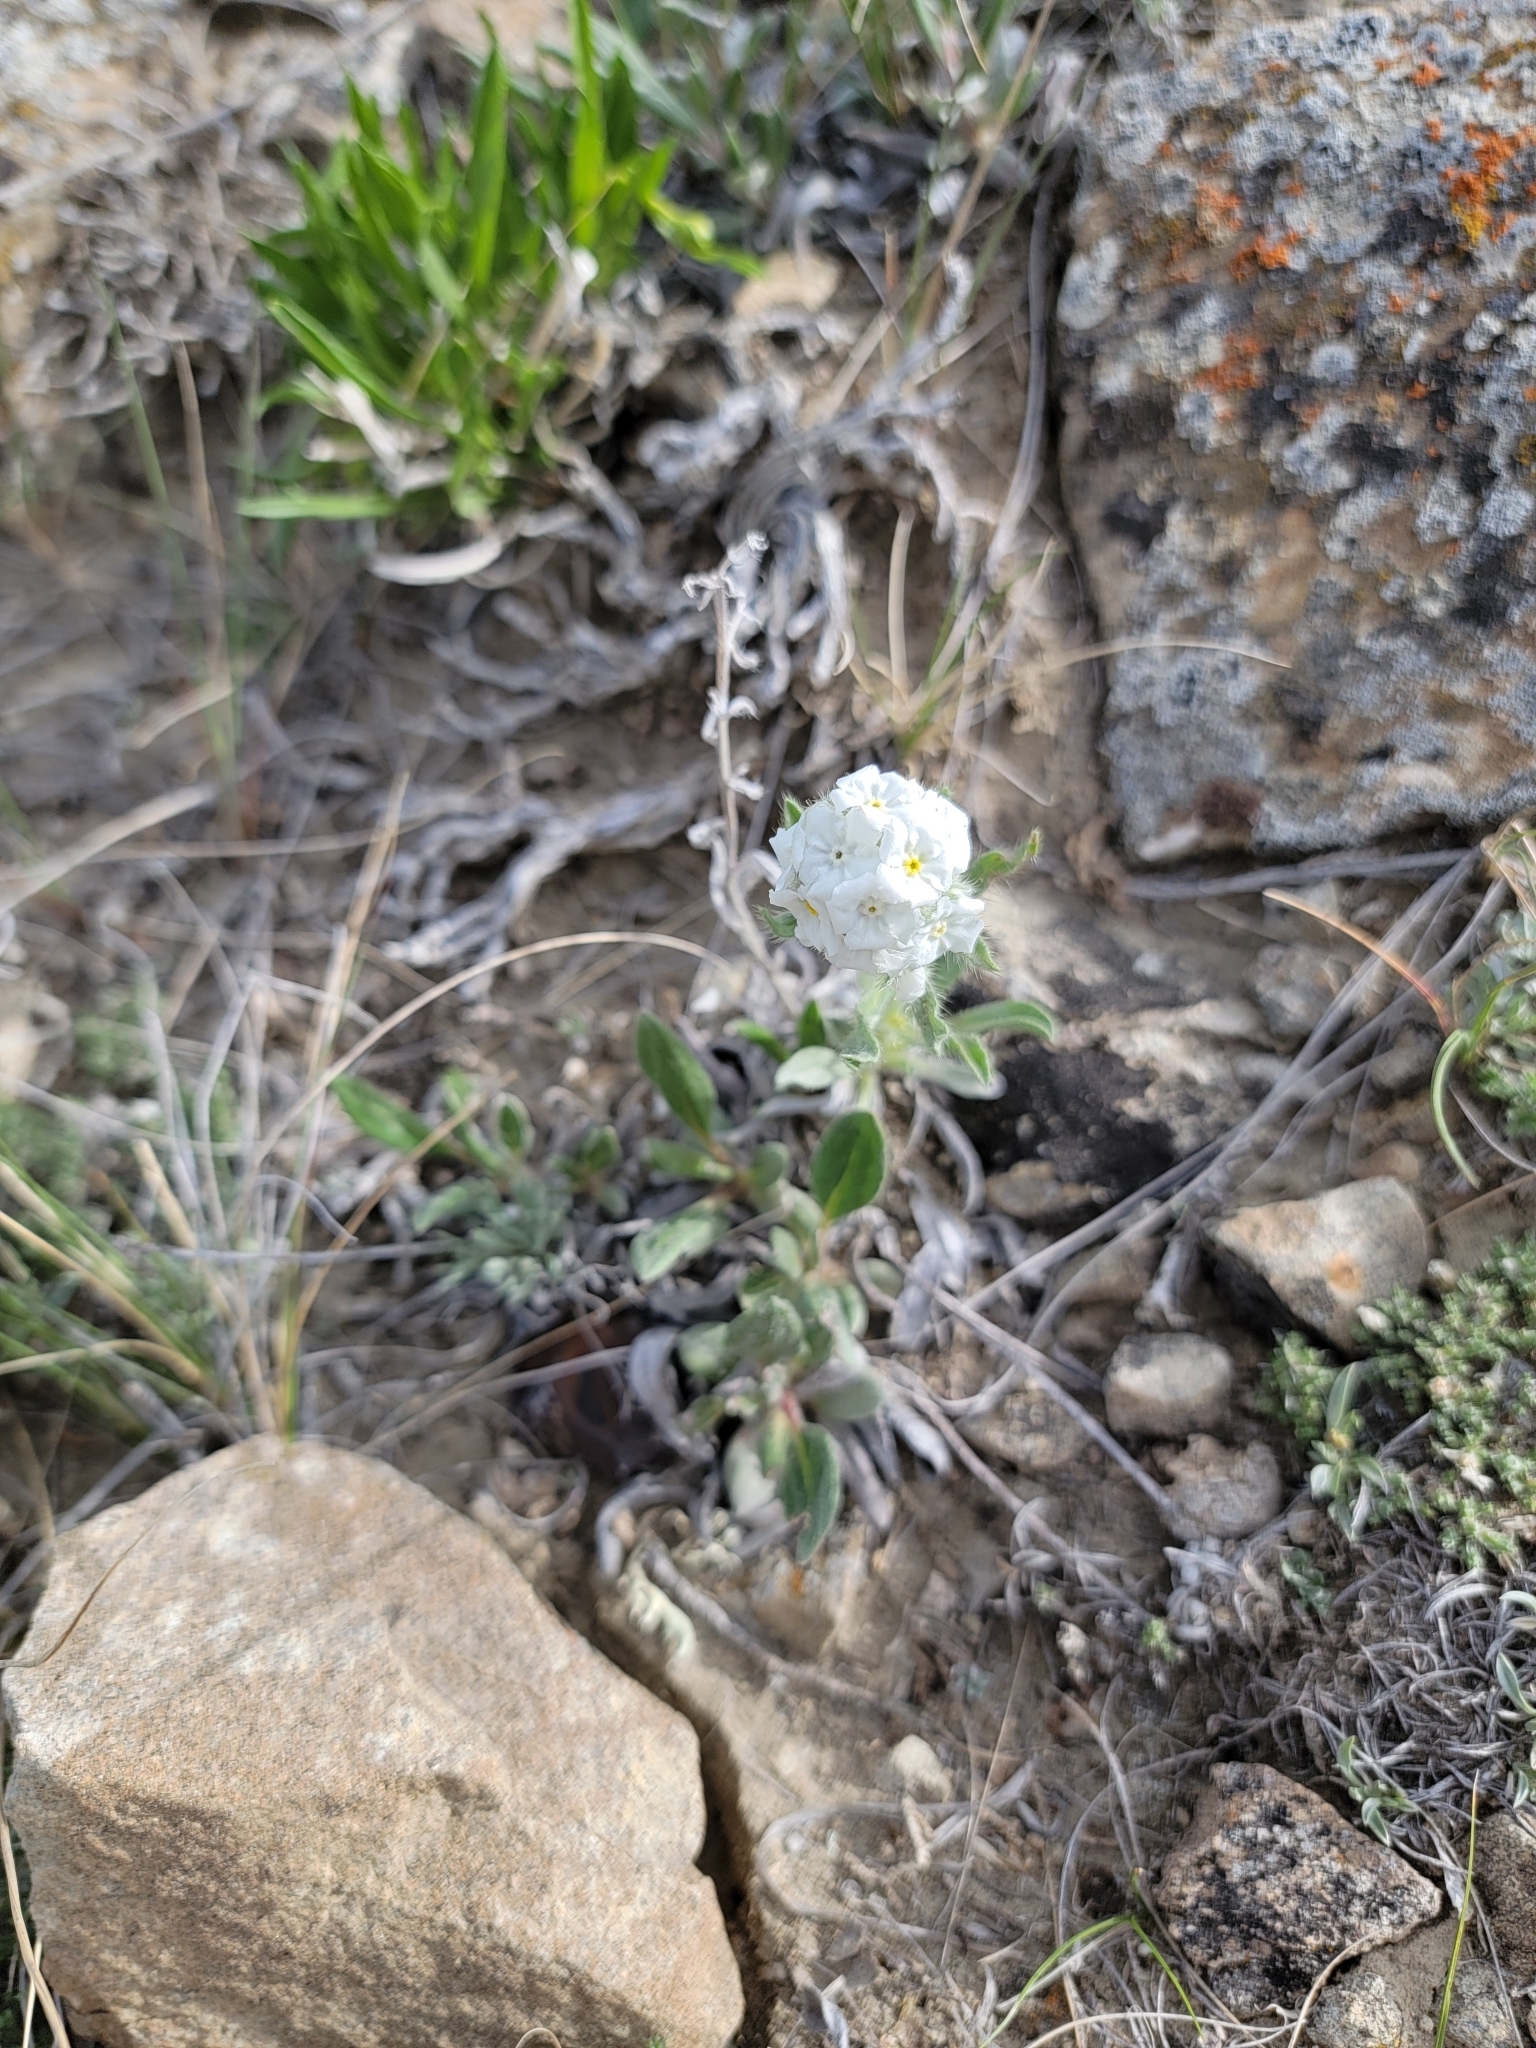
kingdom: Plantae
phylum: Tracheophyta
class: Magnoliopsida
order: Boraginales
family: Boraginaceae
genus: Oreocarya
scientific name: Oreocarya glomerata
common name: Macoun's cryptantha
